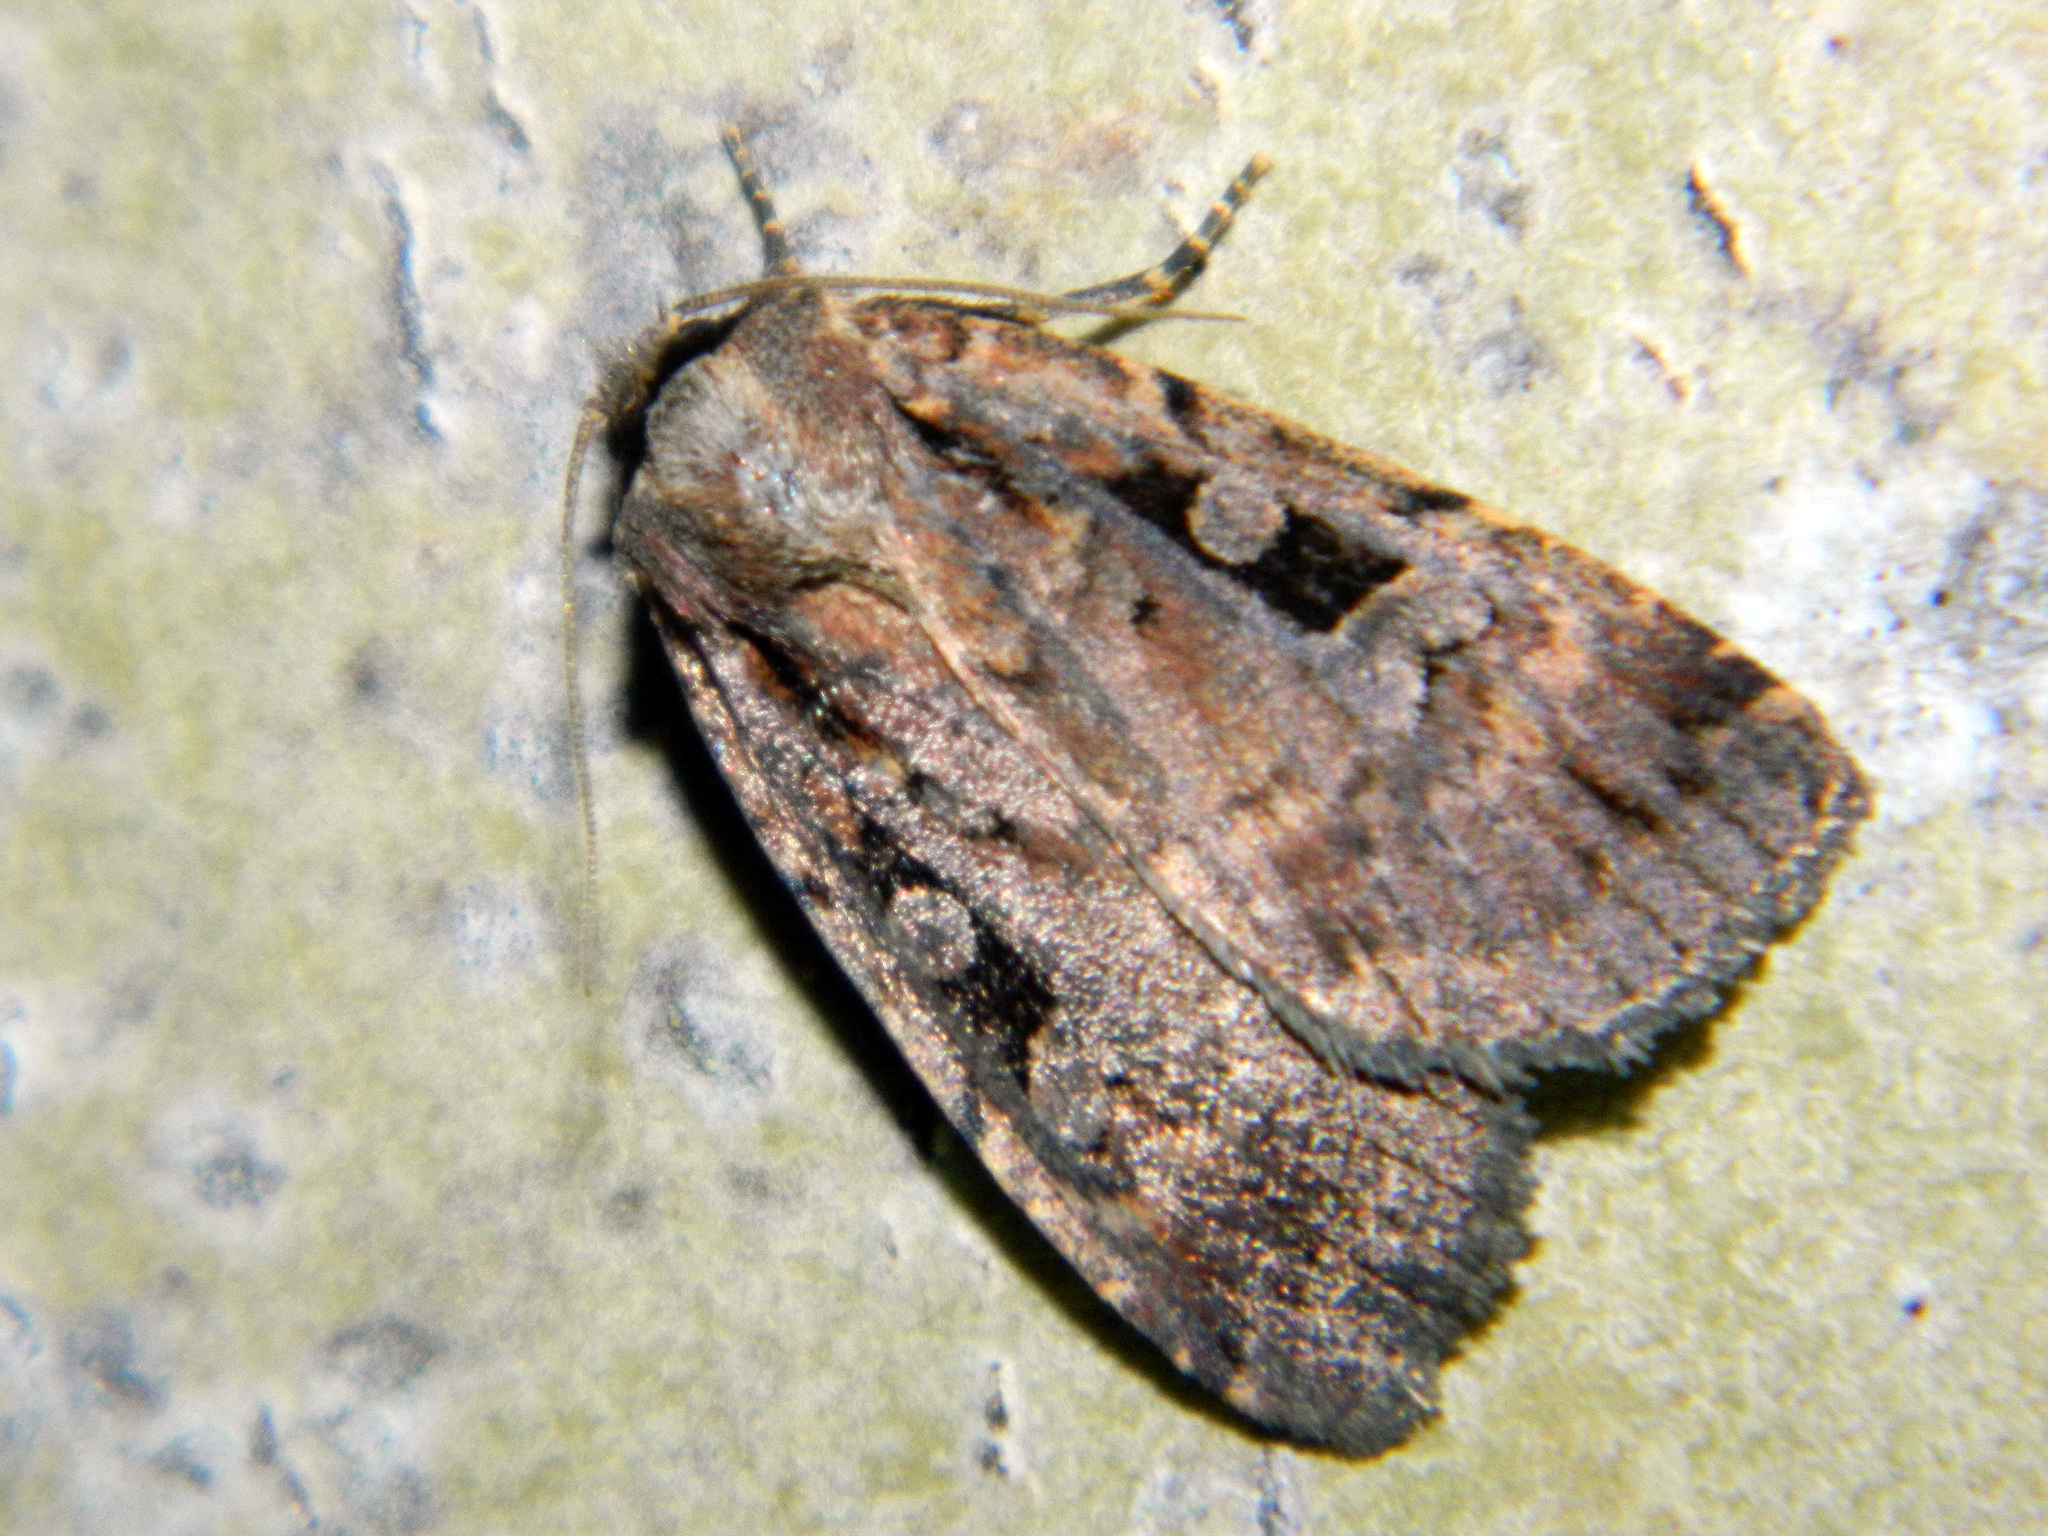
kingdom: Animalia
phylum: Arthropoda
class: Insecta
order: Lepidoptera
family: Noctuidae
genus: Eueretagrotis
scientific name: Eueretagrotis perattentus
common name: Two-spot dart moth
